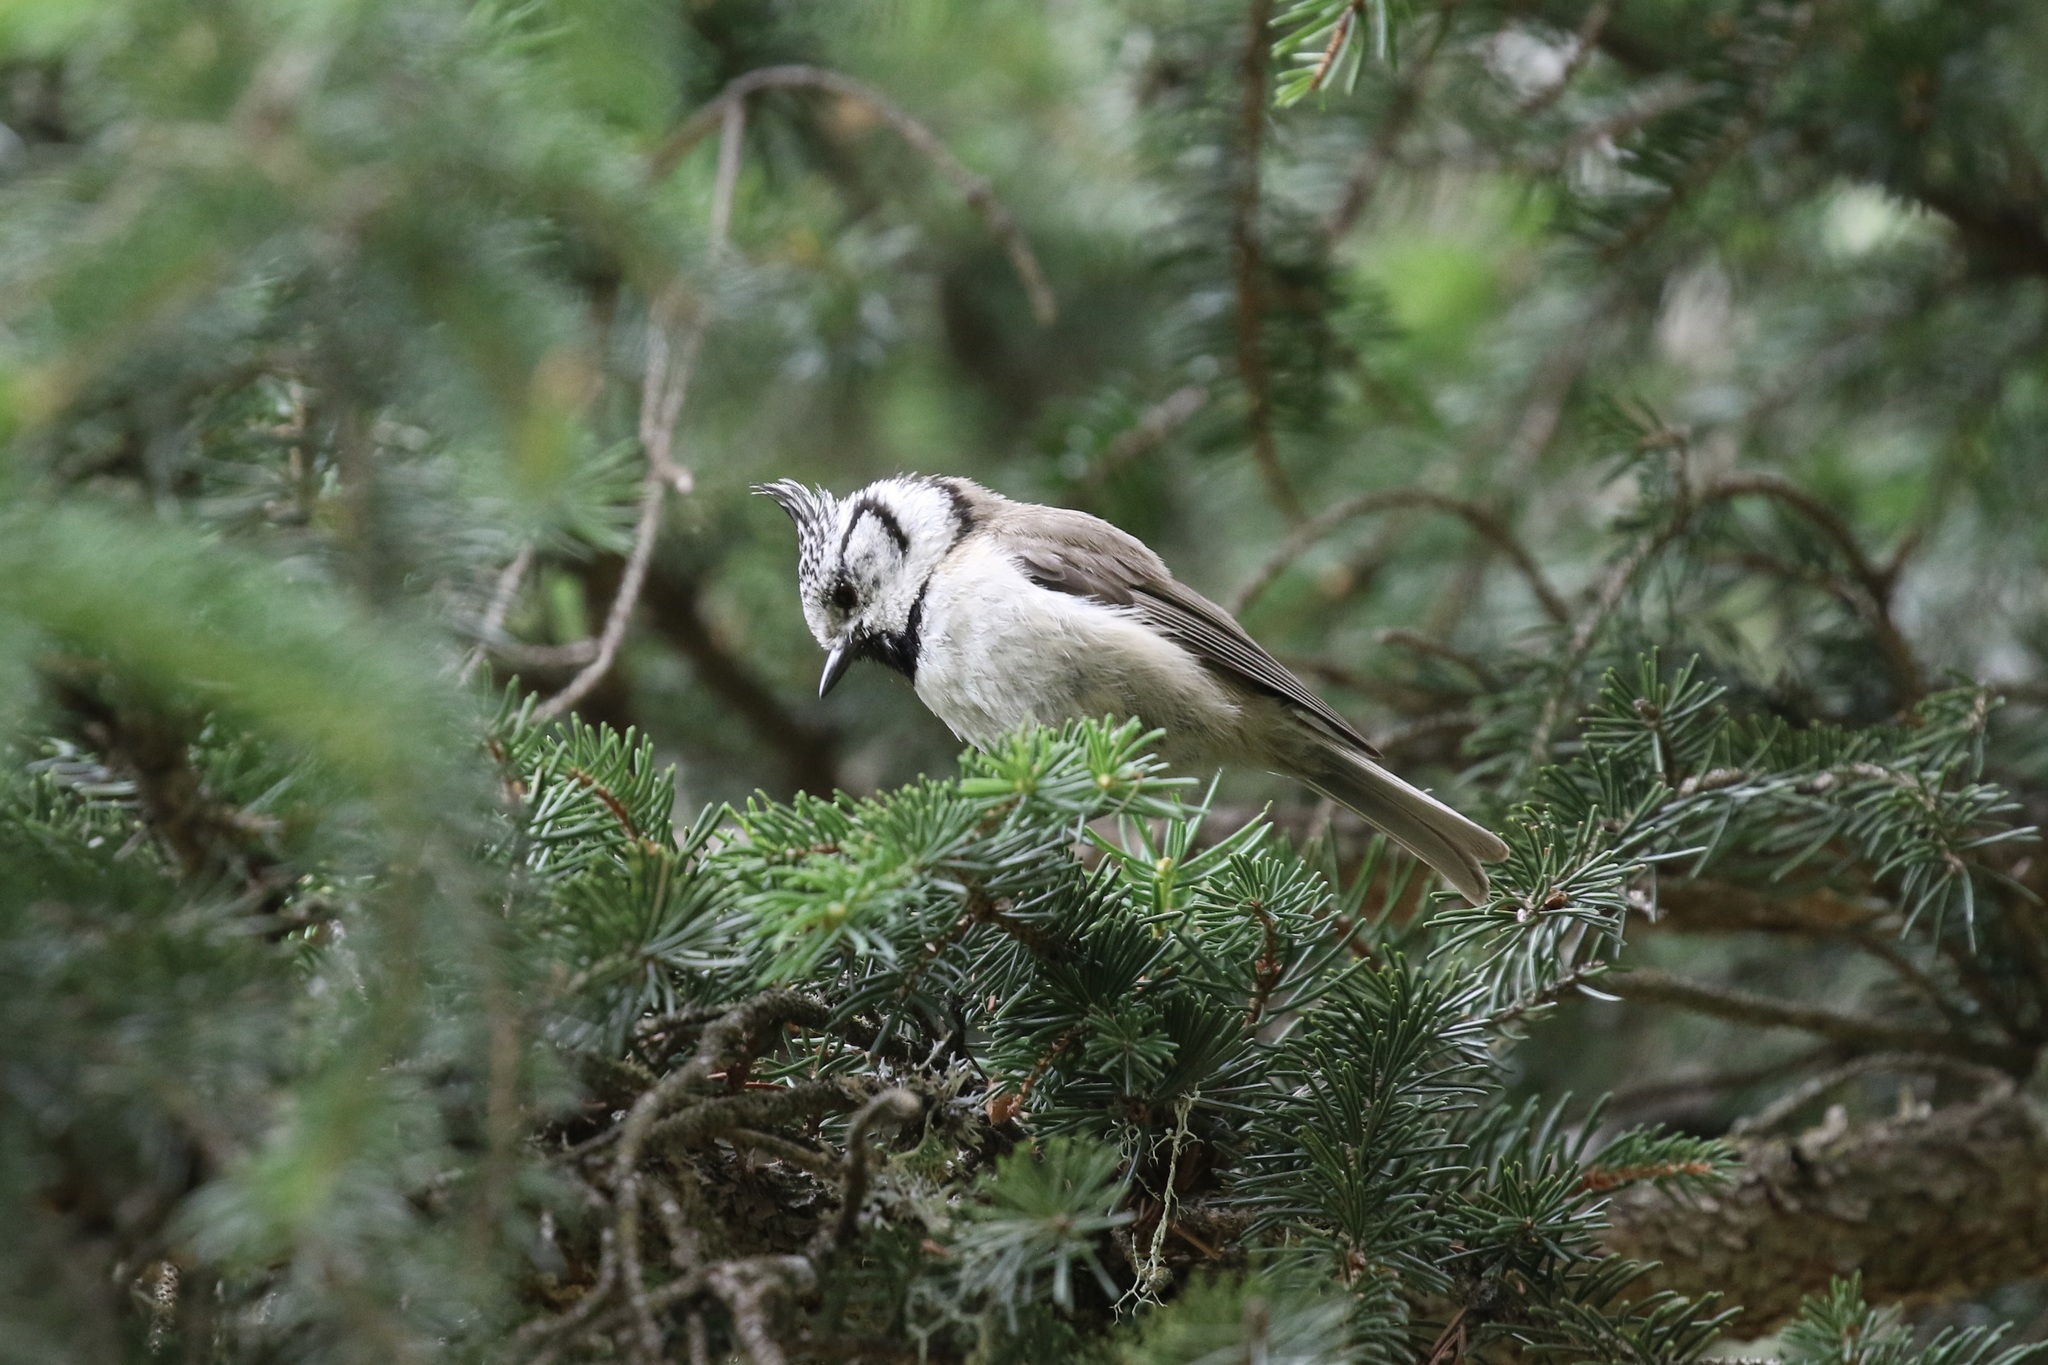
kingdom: Animalia
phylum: Chordata
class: Aves
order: Passeriformes
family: Paridae
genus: Lophophanes
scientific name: Lophophanes cristatus
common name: European crested tit
